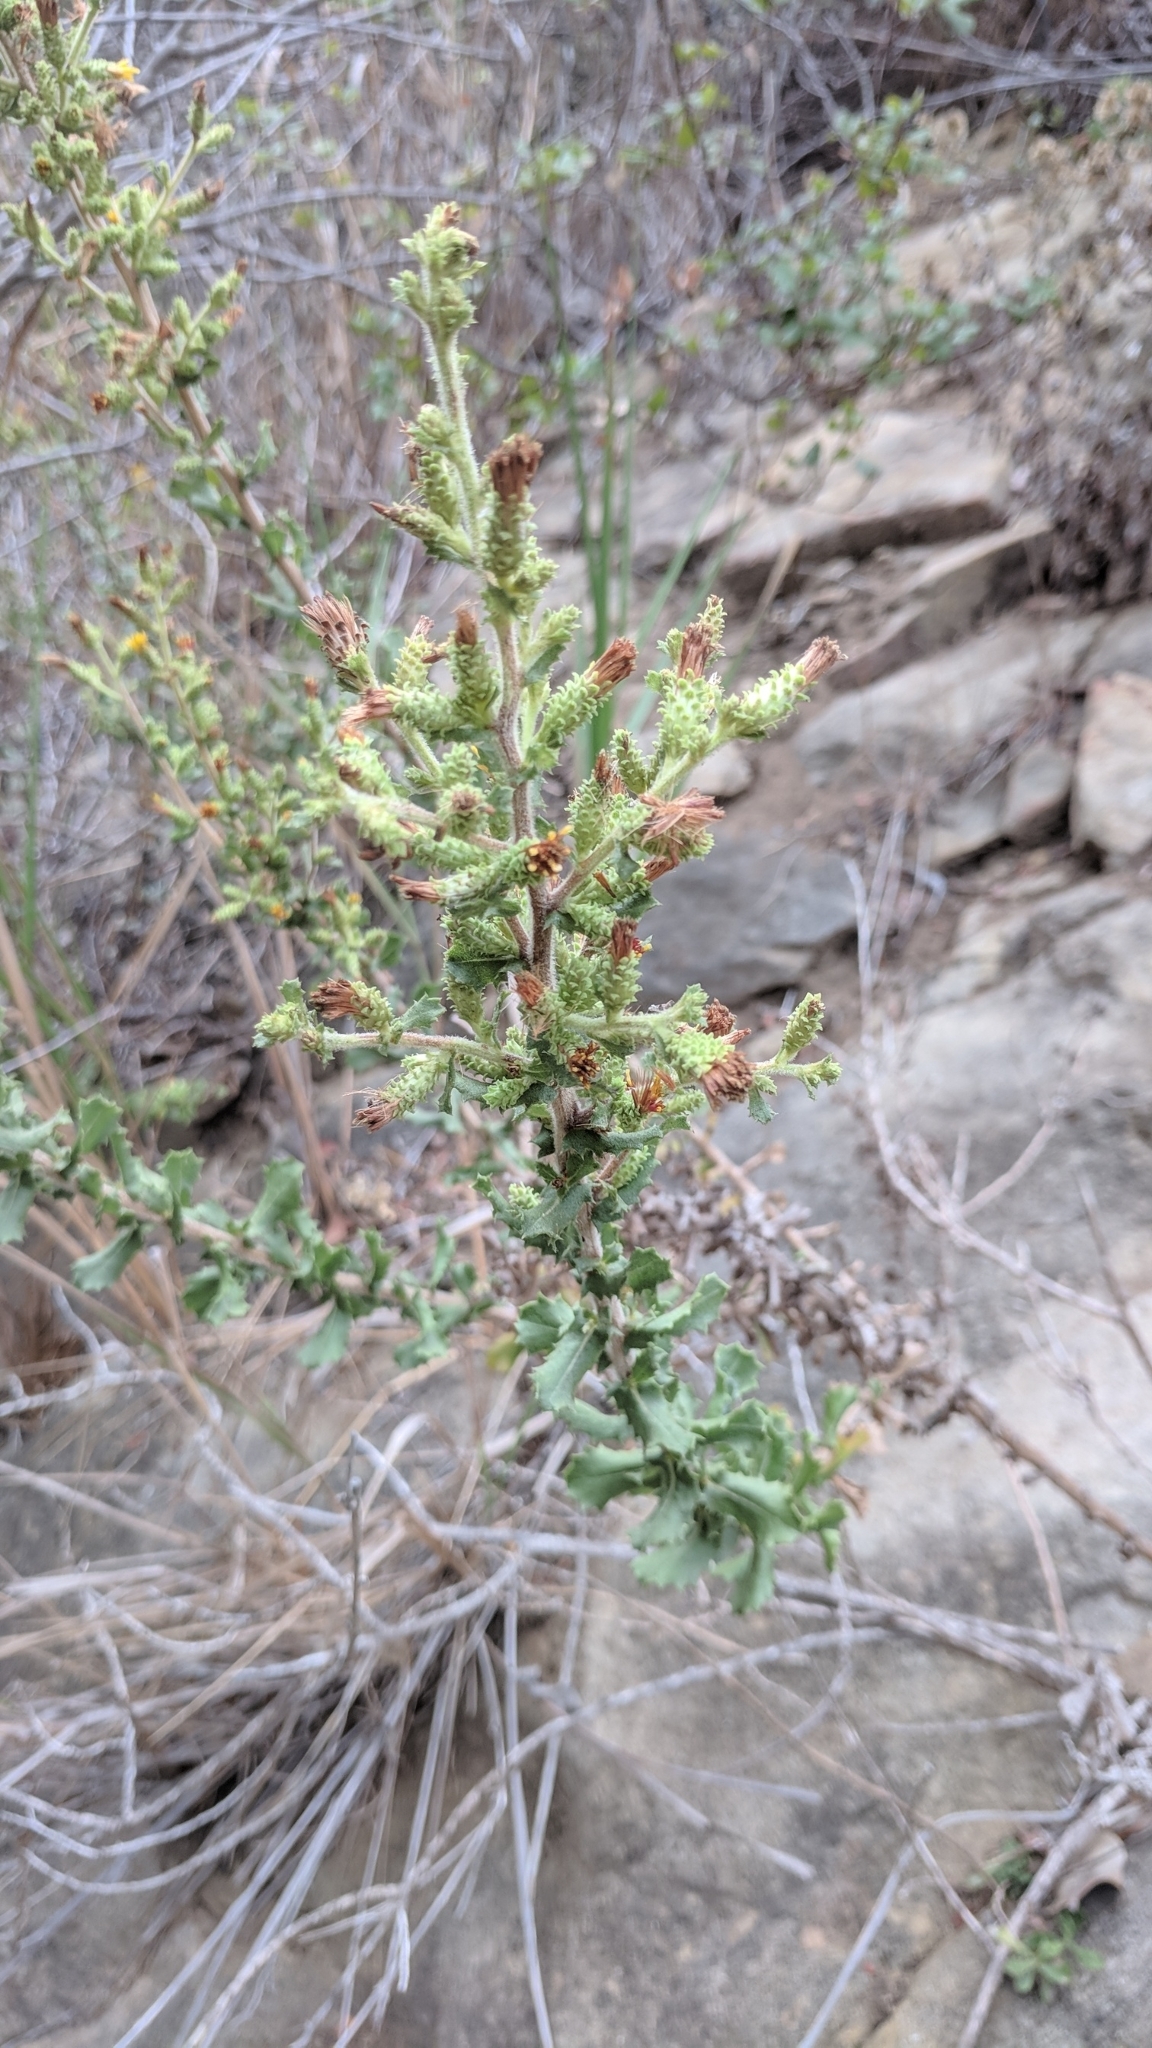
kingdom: Plantae
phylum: Tracheophyta
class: Magnoliopsida
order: Asterales
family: Asteraceae
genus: Hazardia
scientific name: Hazardia squarrosa
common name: Saw-tooth goldenbush
